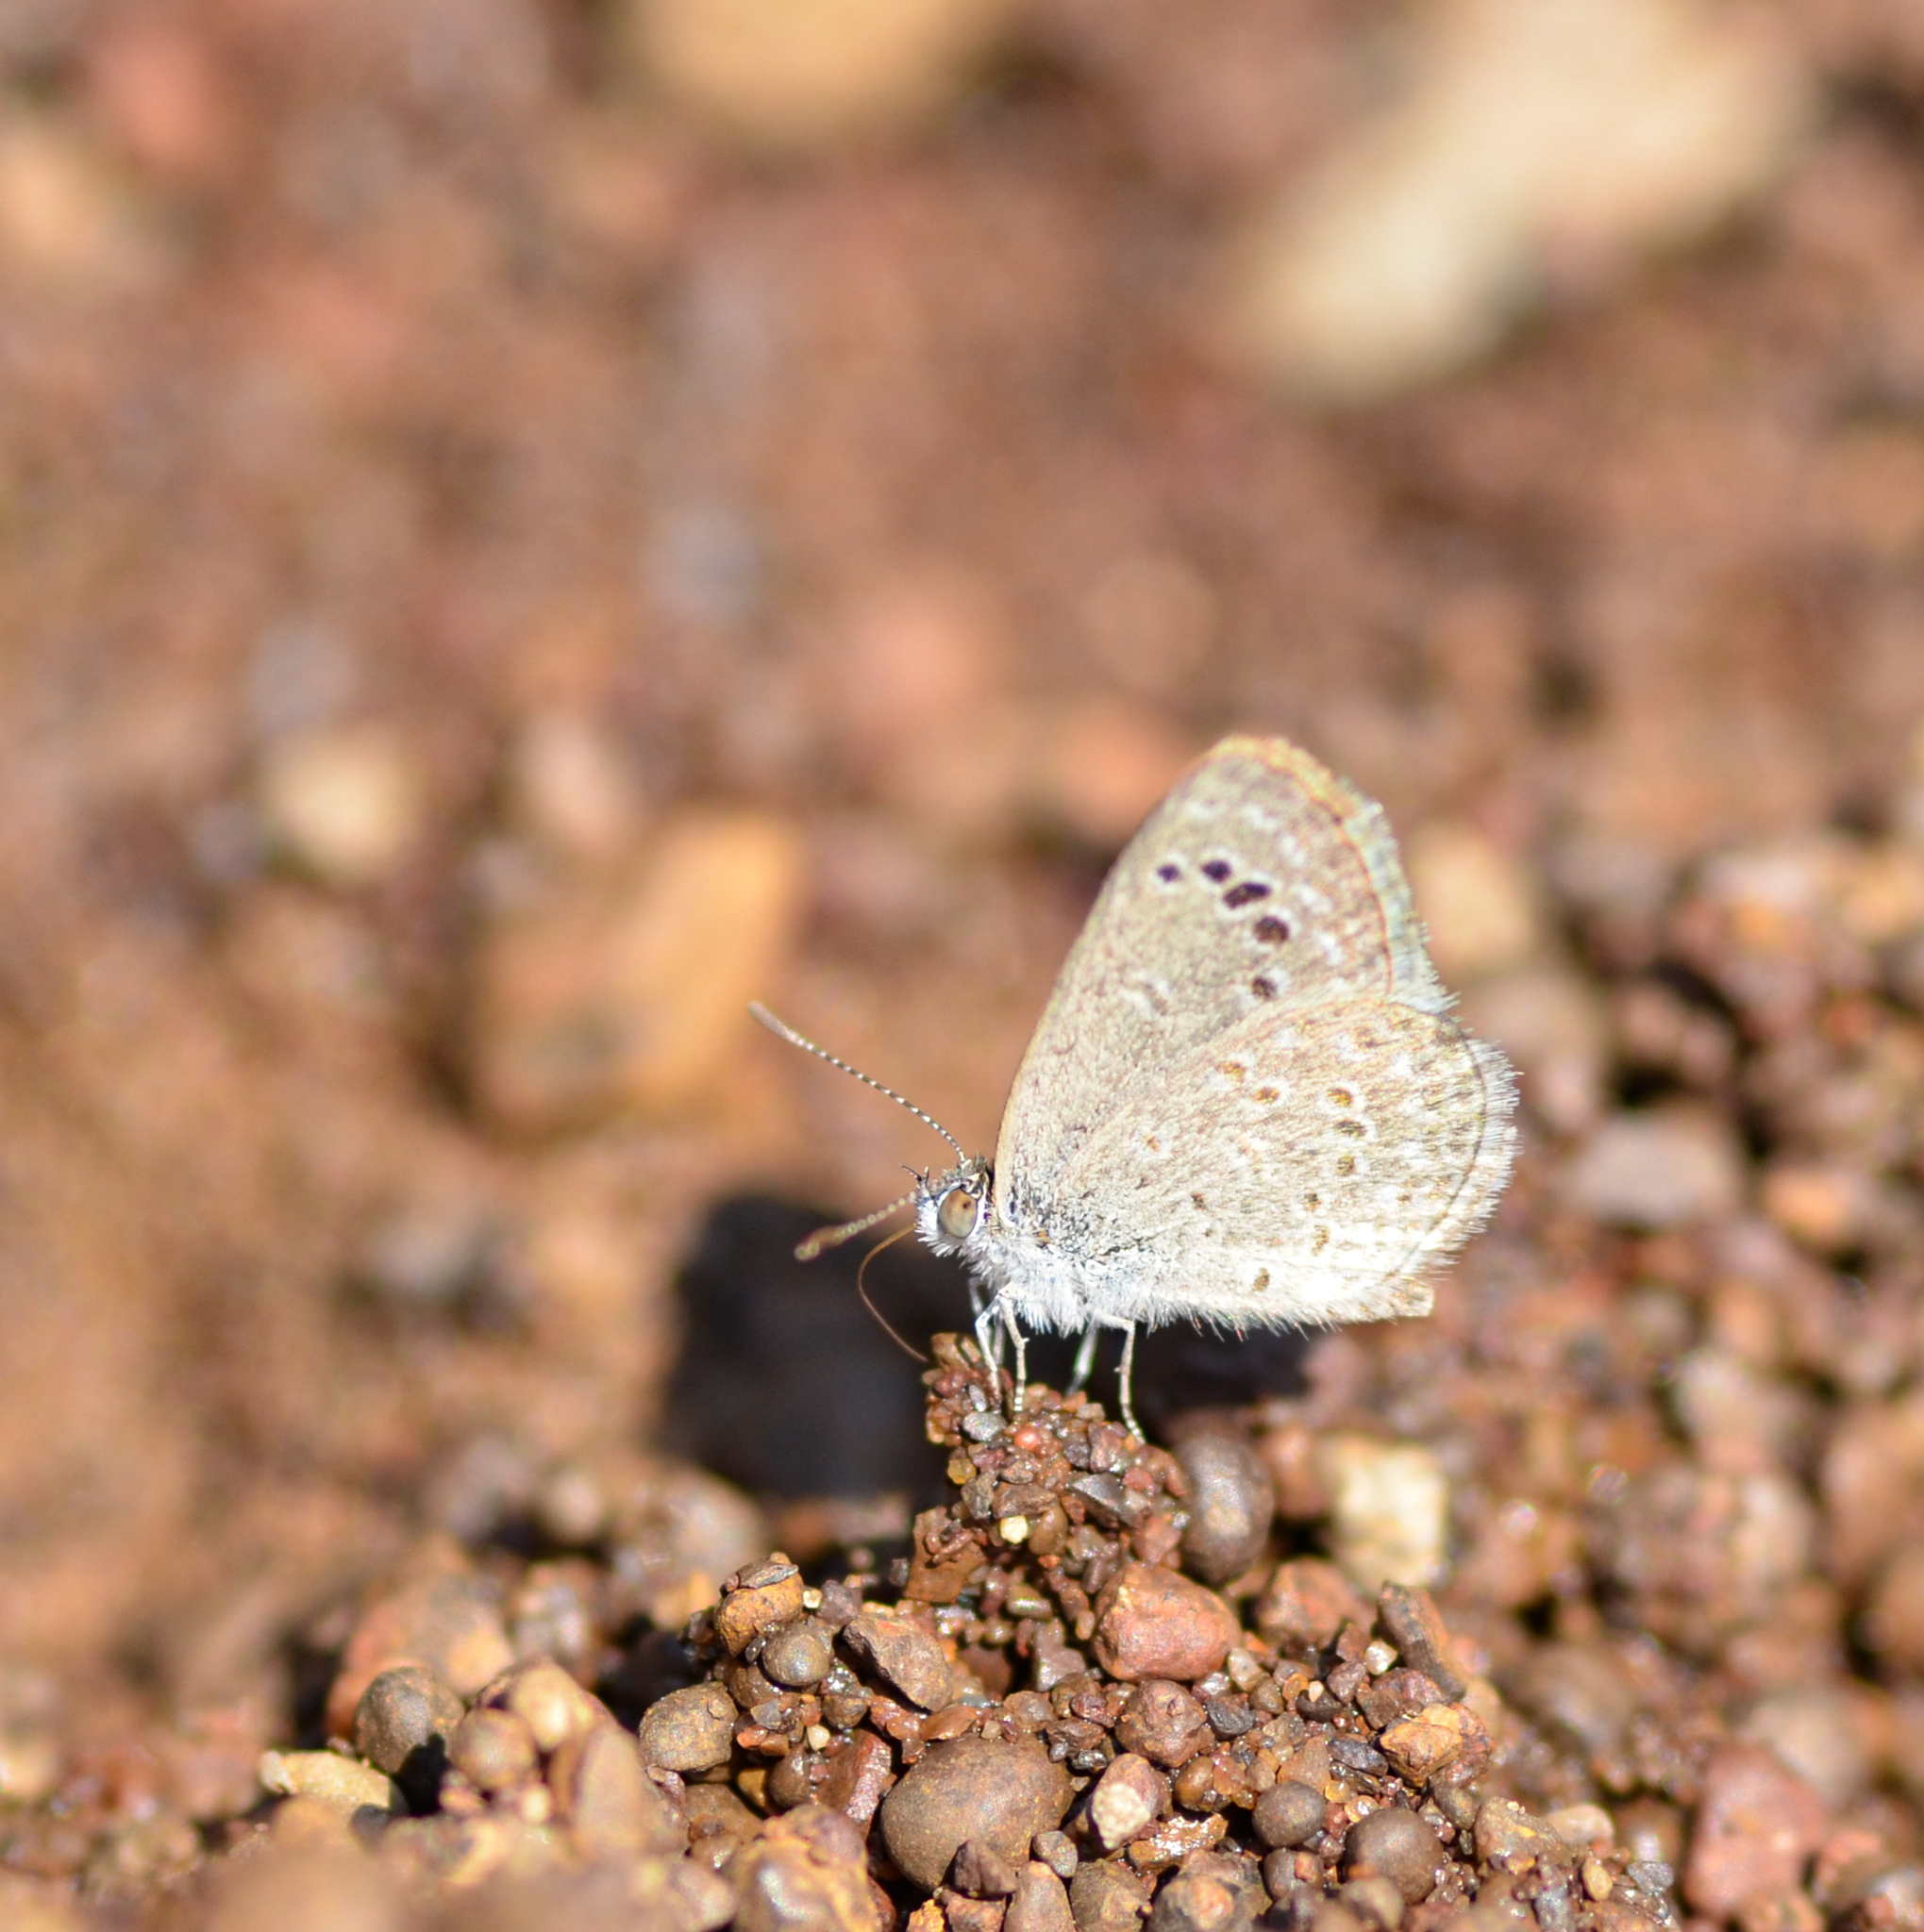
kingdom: Animalia
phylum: Arthropoda
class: Insecta
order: Lepidoptera
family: Lycaenidae
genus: Zizina
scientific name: Zizina otis
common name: Lesser grass blue
